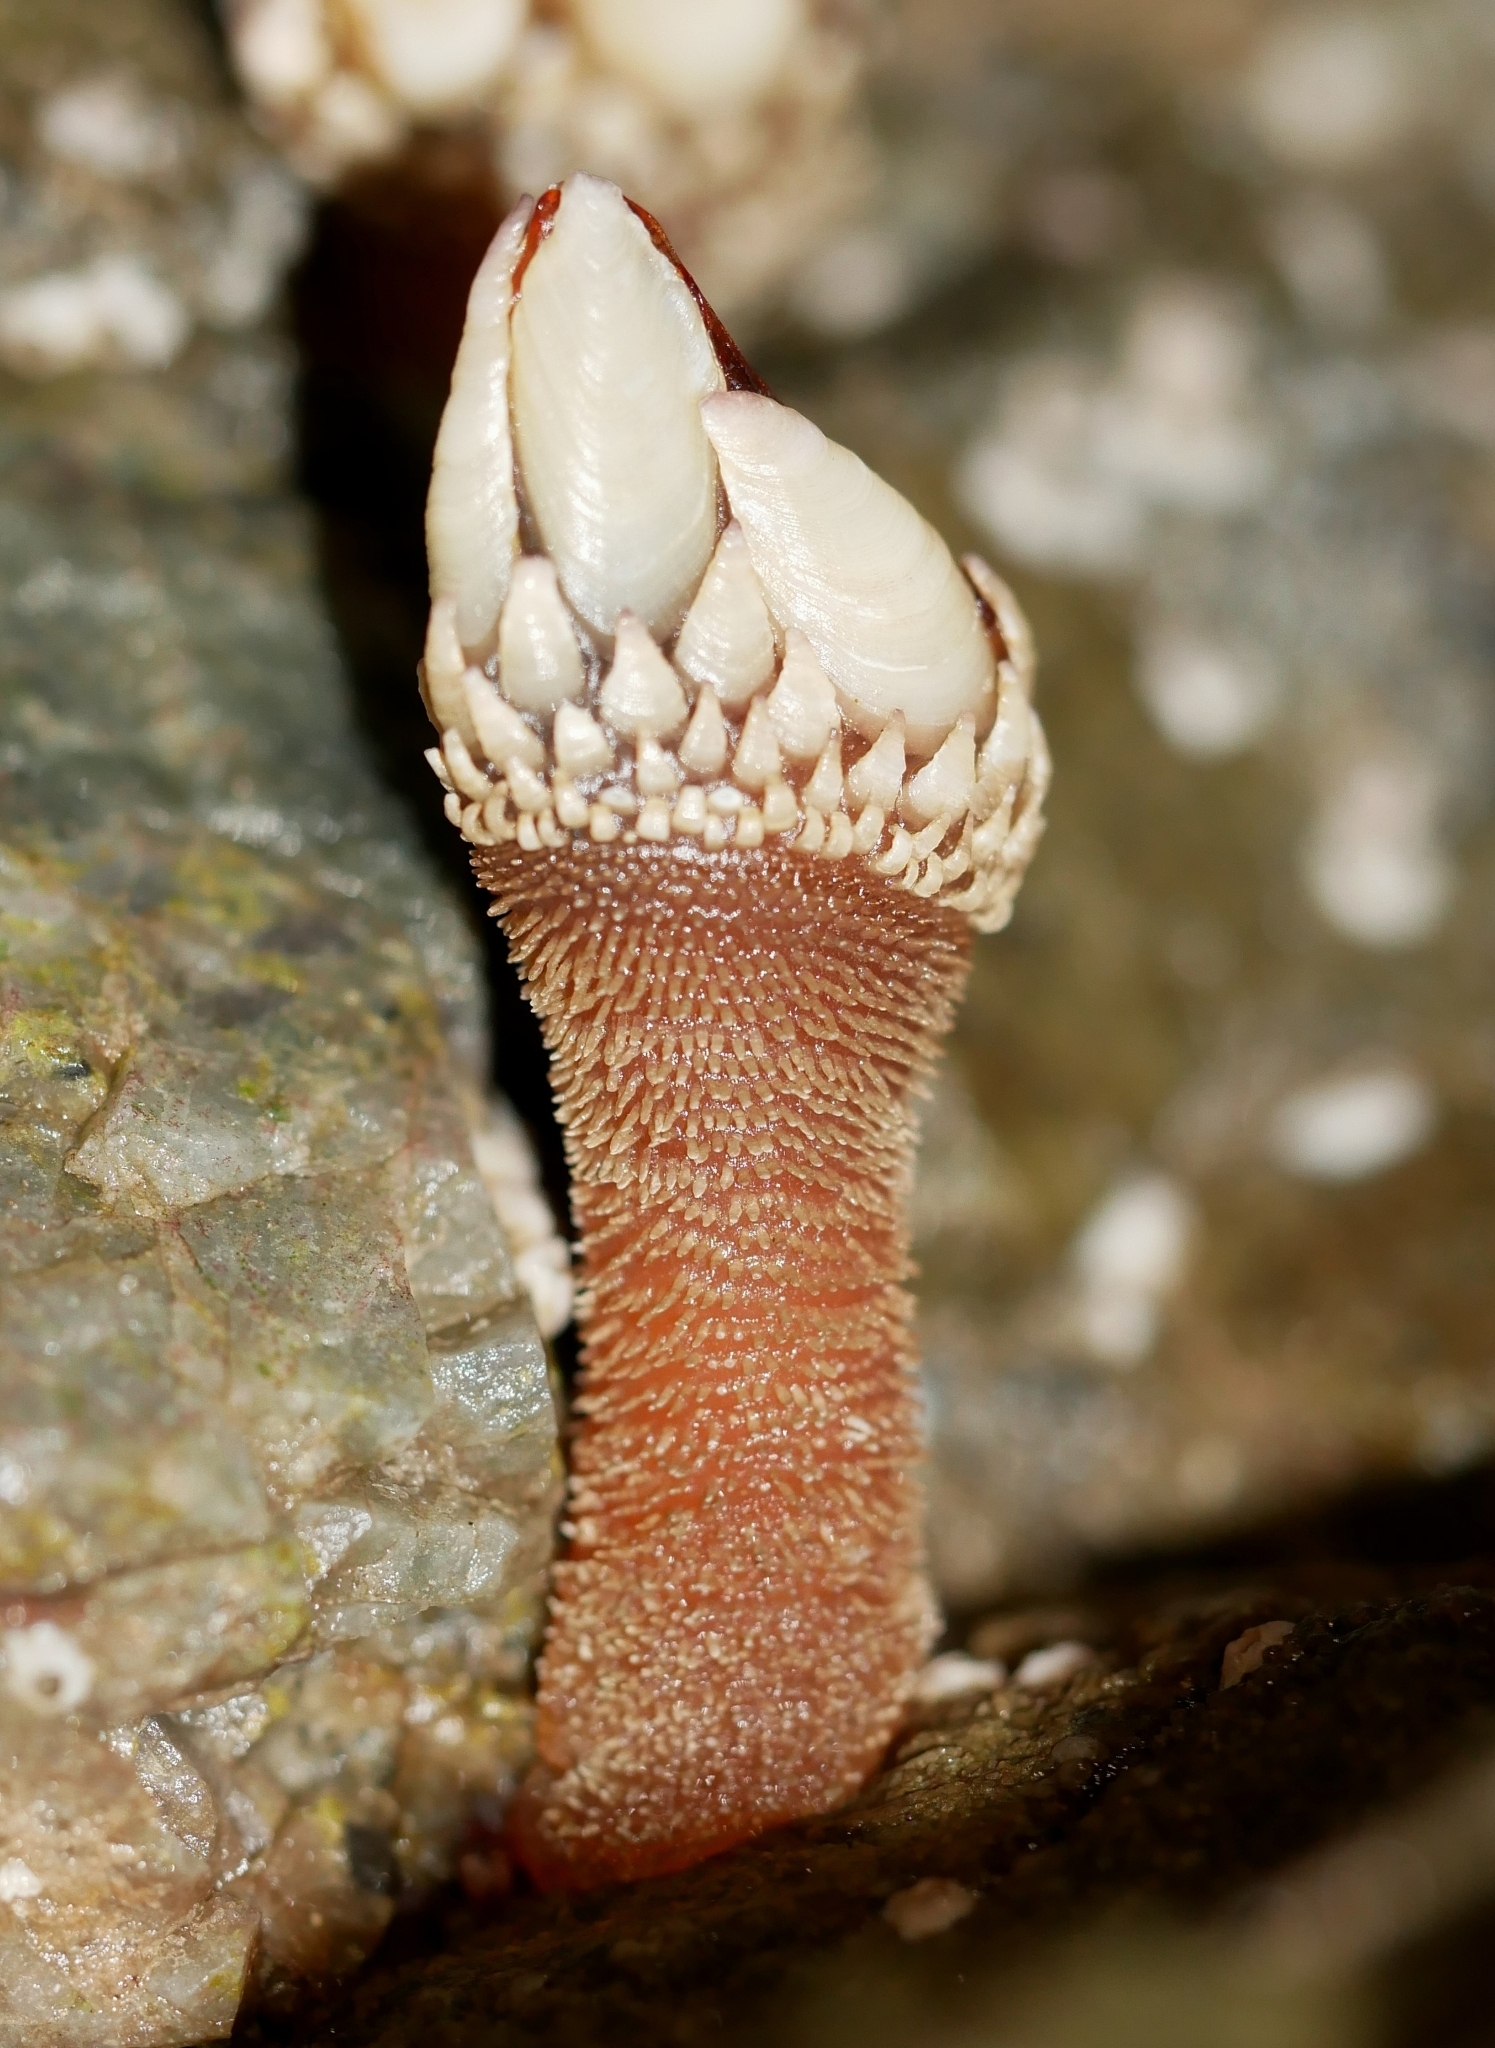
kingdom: Animalia
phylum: Arthropoda
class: Maxillopoda
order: Pedunculata
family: Pollicipedidae
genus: Pollicipes
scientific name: Pollicipes polymerus
